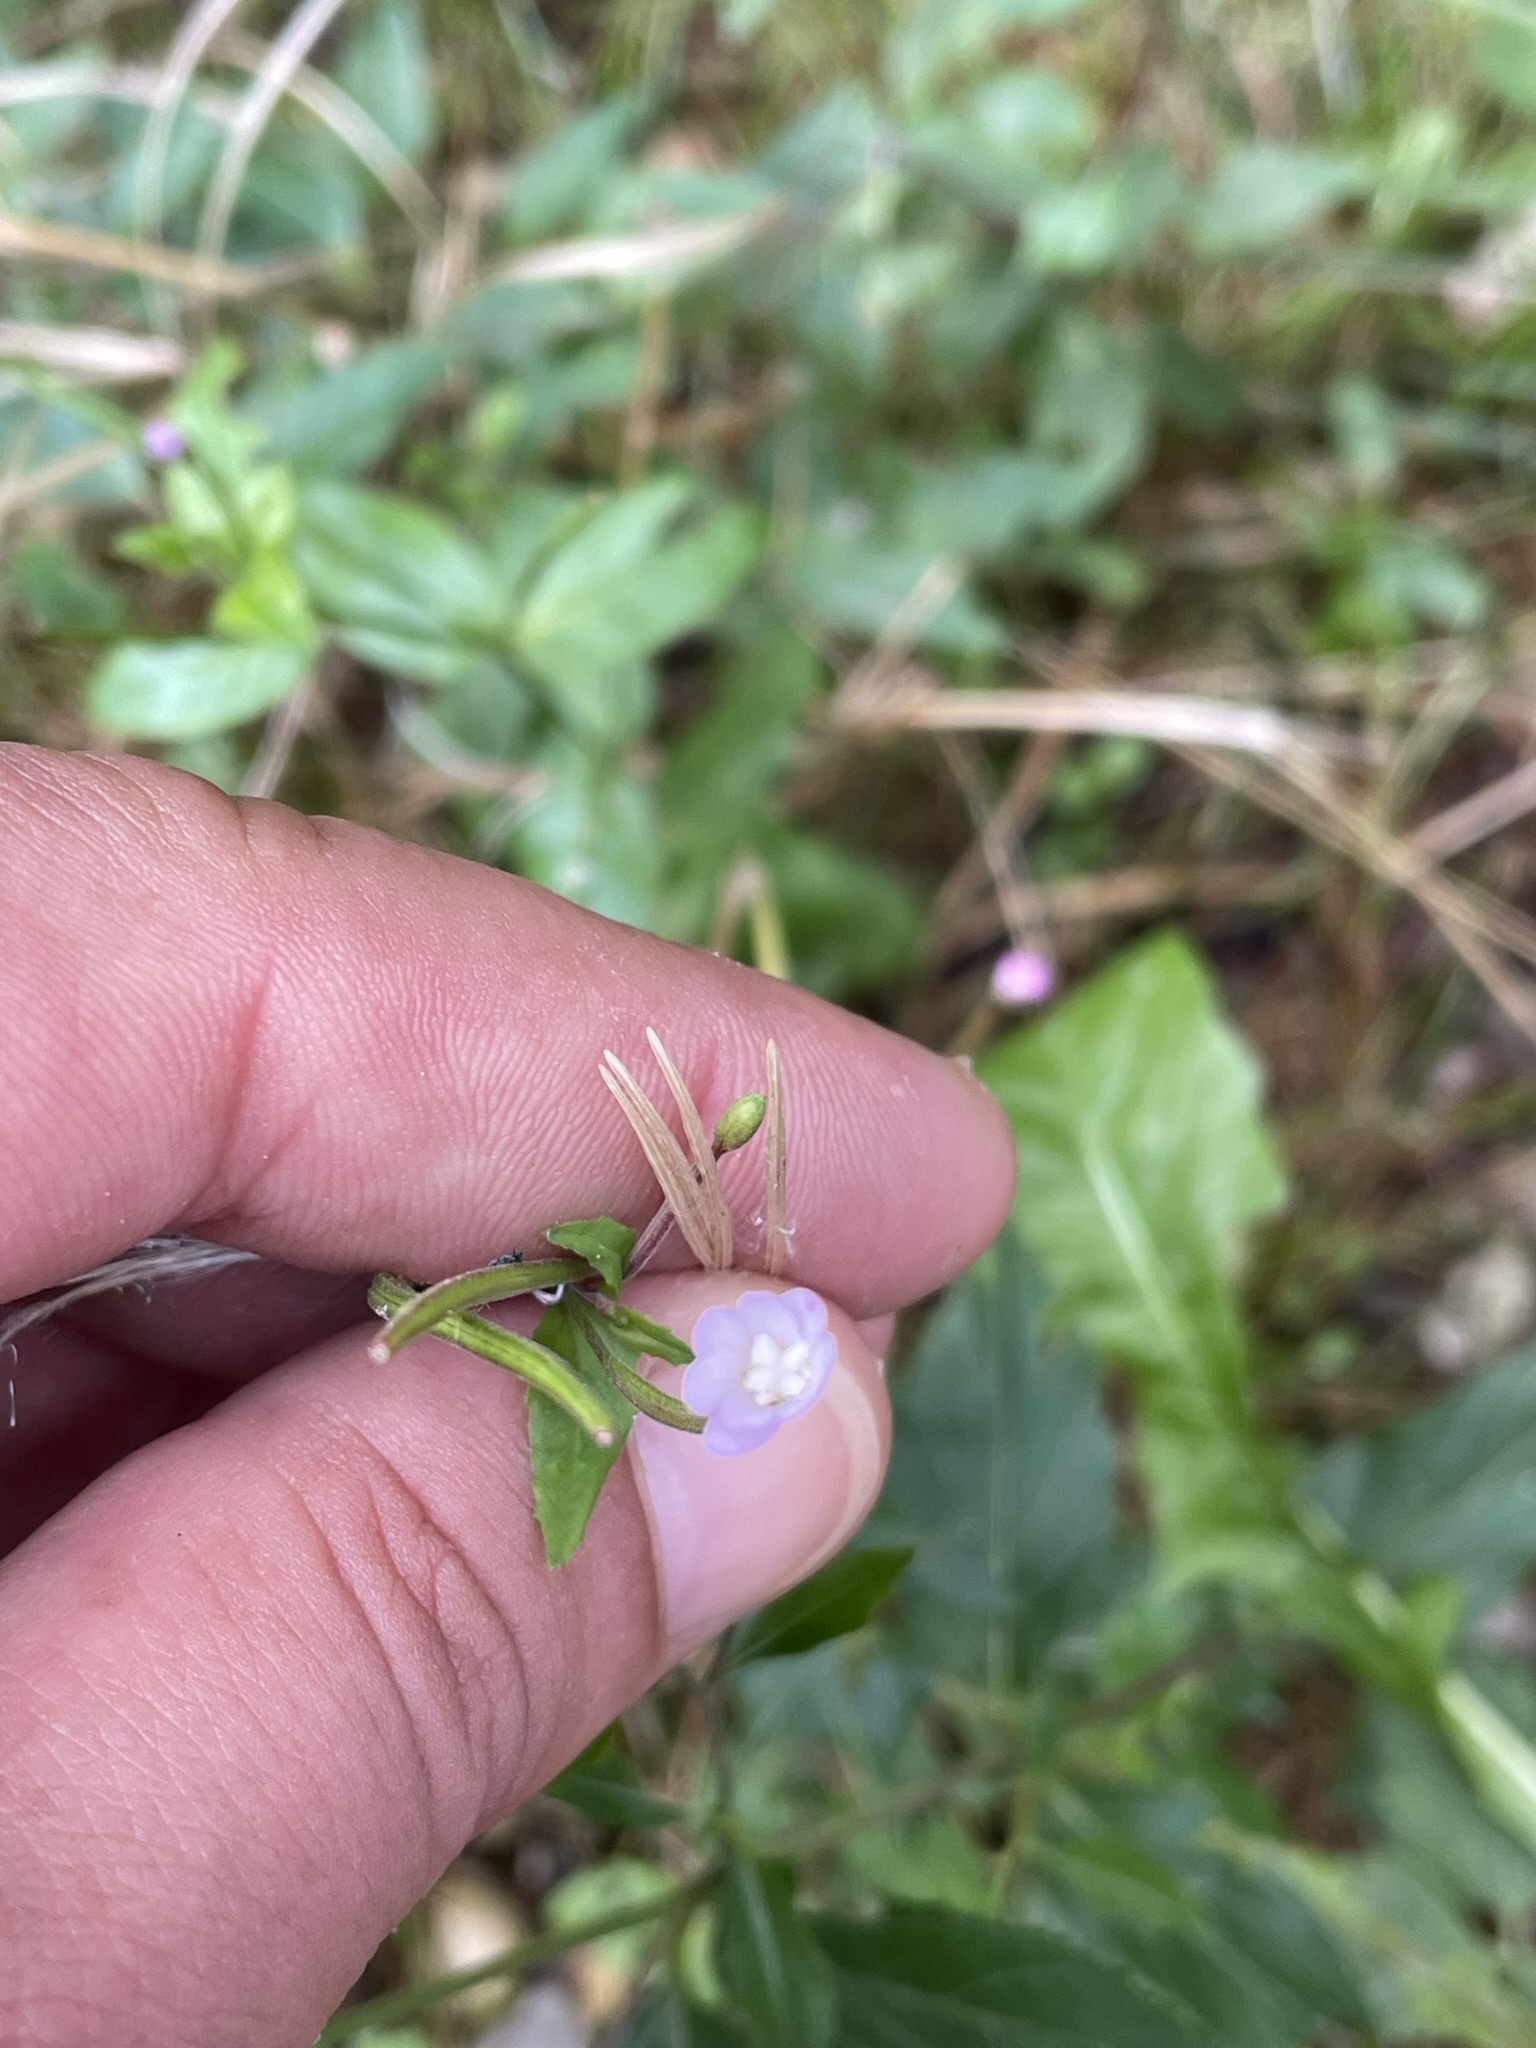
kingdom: Plantae
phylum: Tracheophyta
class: Magnoliopsida
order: Myrtales
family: Onagraceae
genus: Epilobium
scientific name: Epilobium montanum
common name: Broad-leaved willowherb
